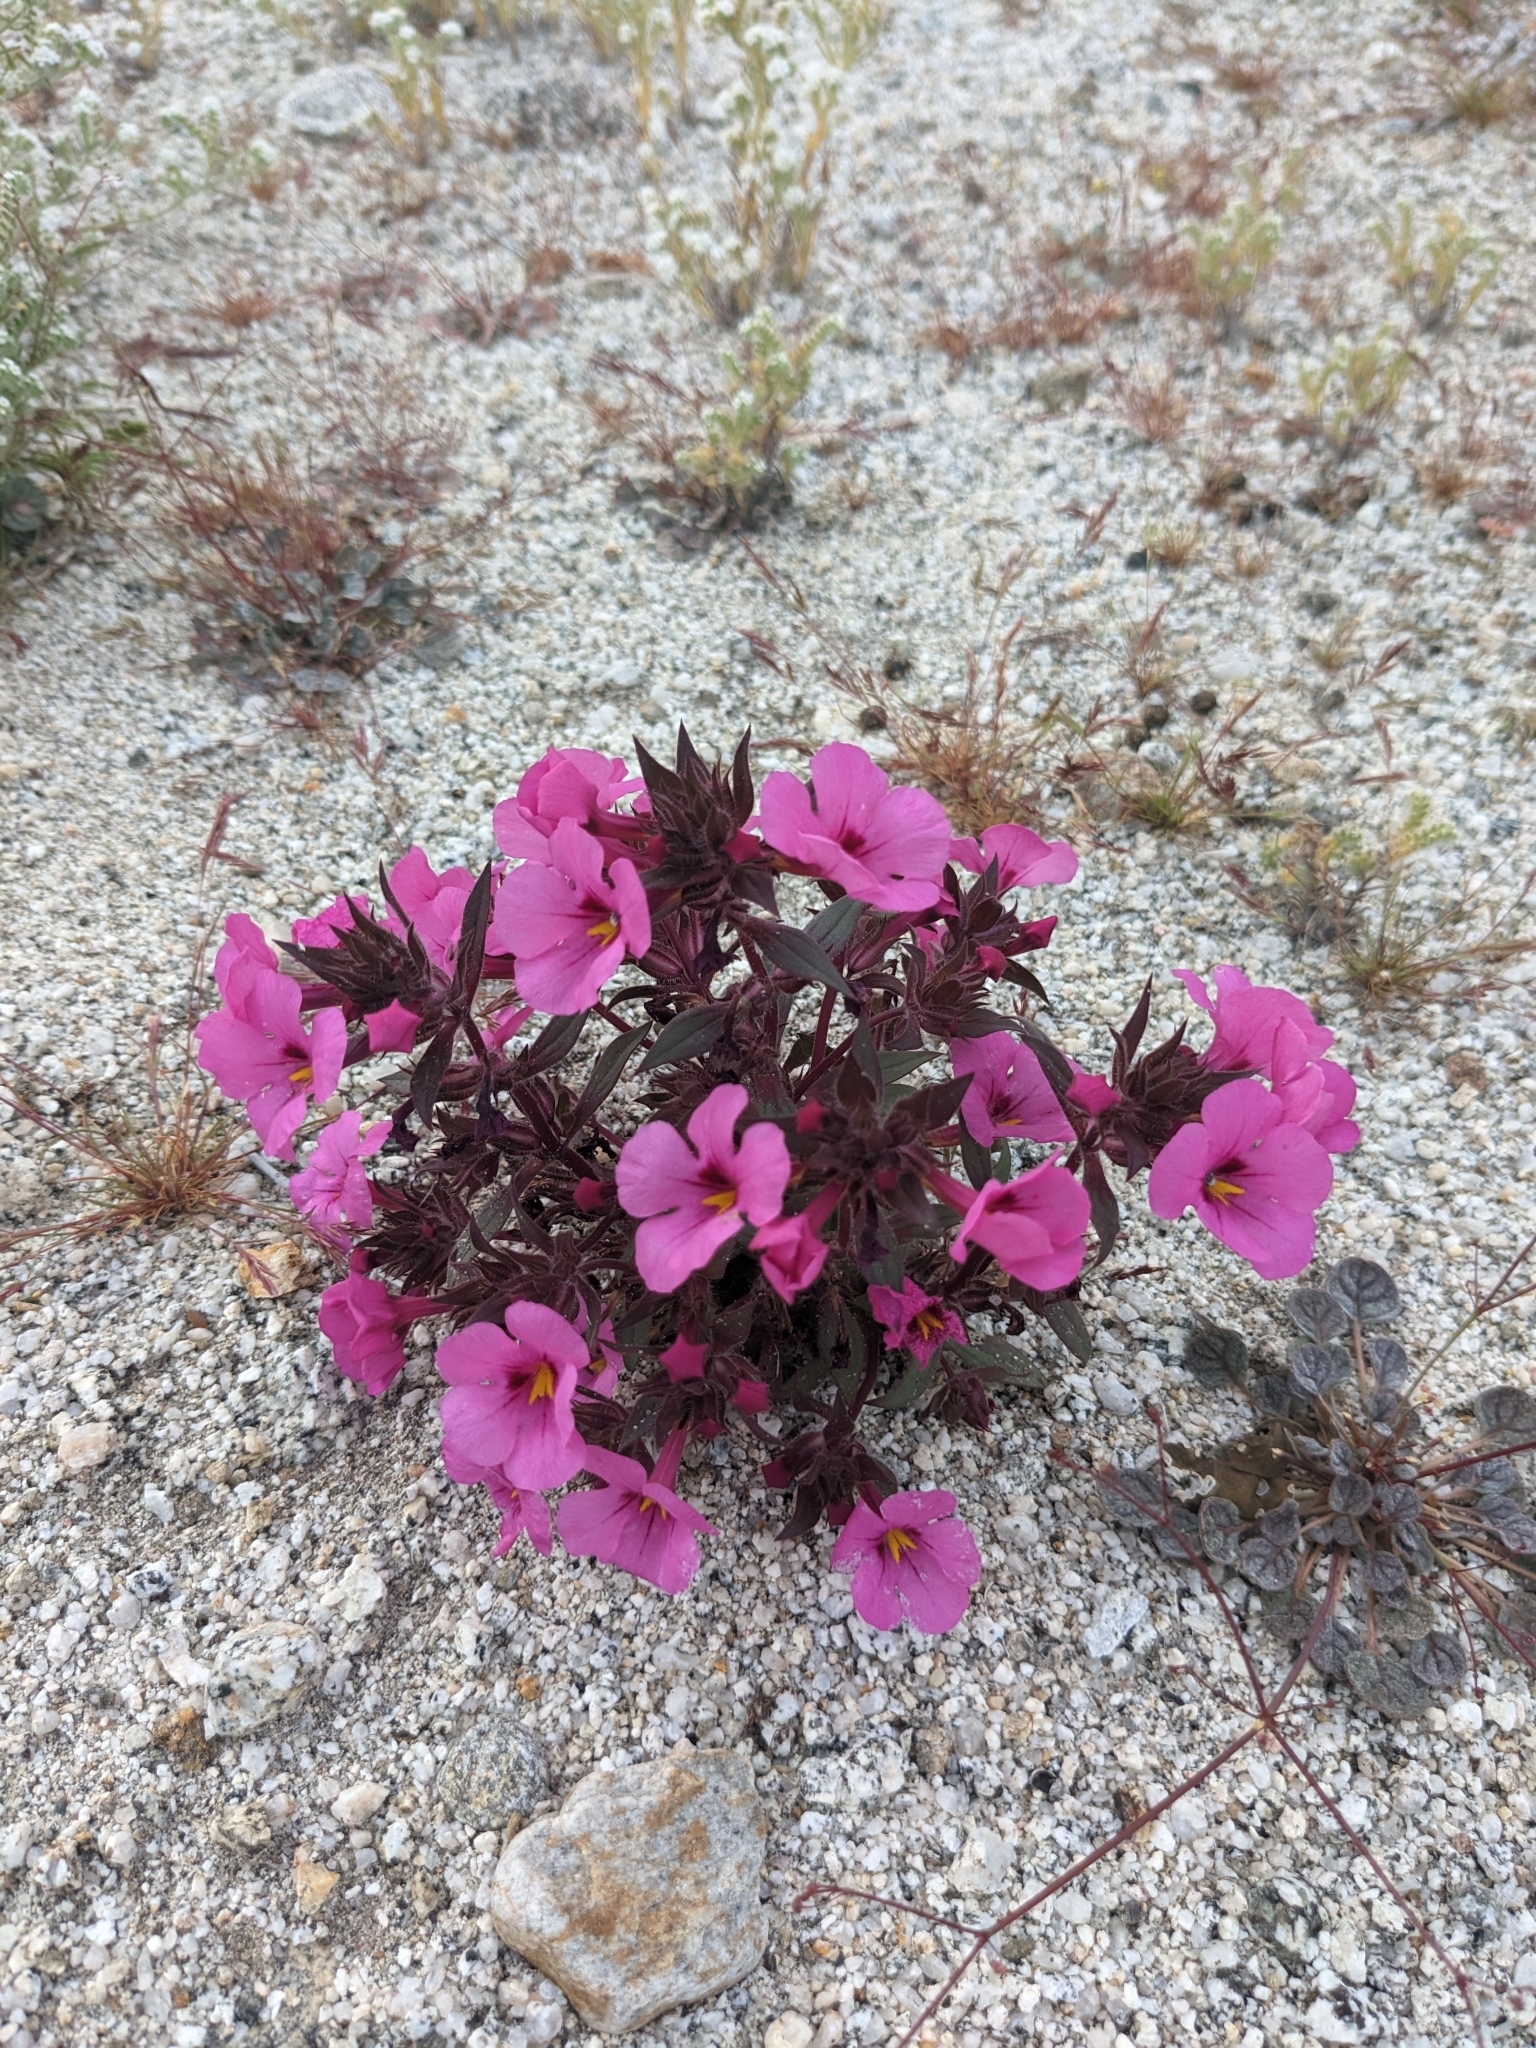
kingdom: Plantae
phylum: Tracheophyta
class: Magnoliopsida
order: Lamiales
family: Phrymaceae
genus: Diplacus
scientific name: Diplacus bigelovii
